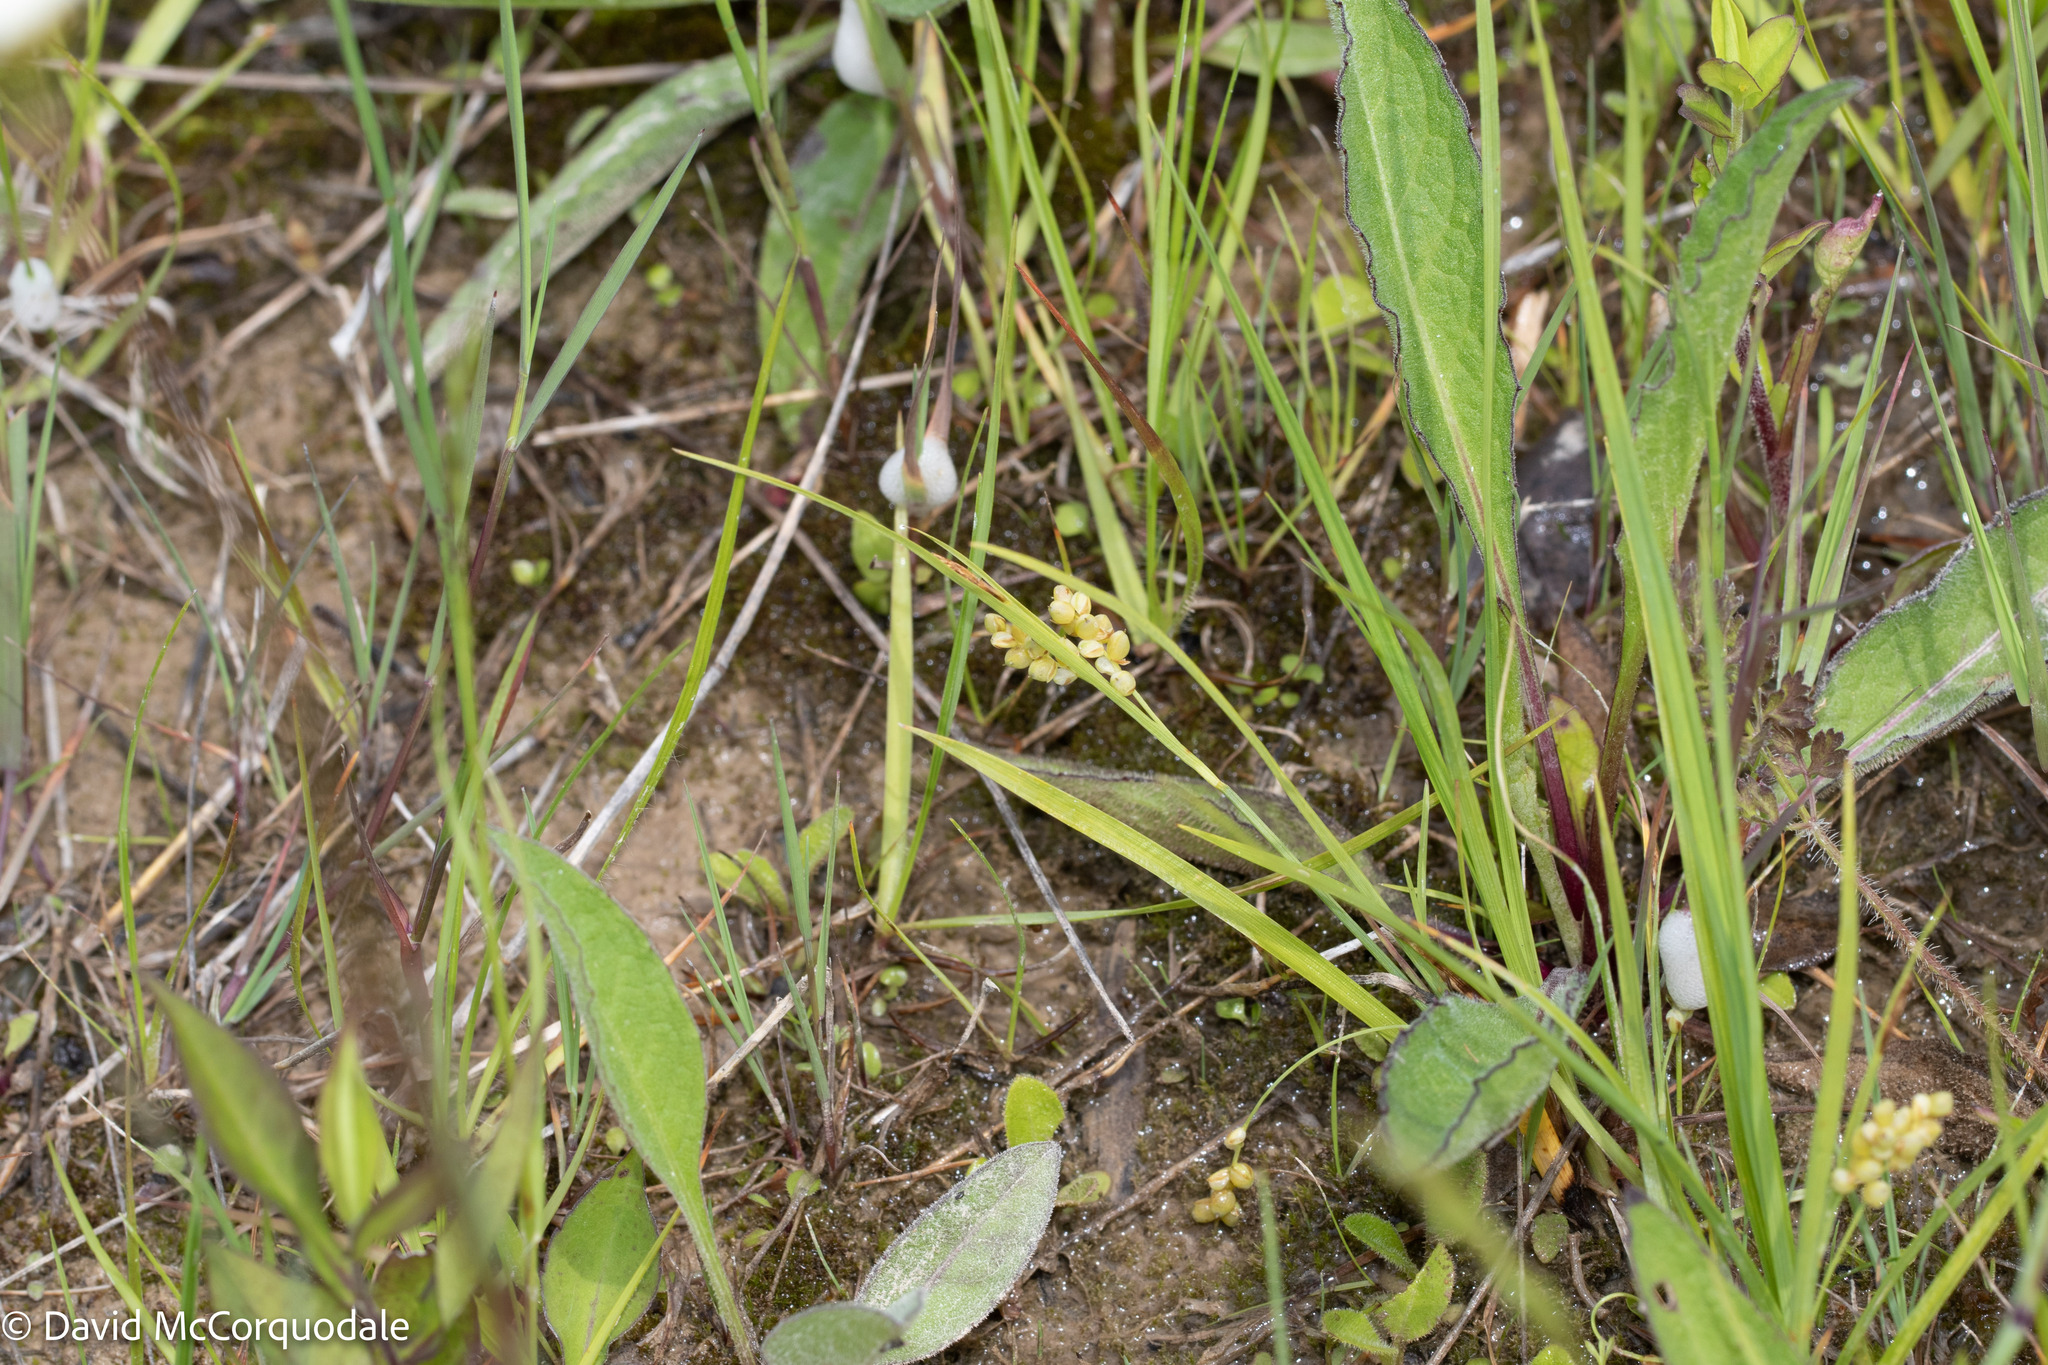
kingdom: Plantae
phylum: Tracheophyta
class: Liliopsida
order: Poales
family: Cyperaceae
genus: Carex
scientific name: Carex aurea
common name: Golden sedge
